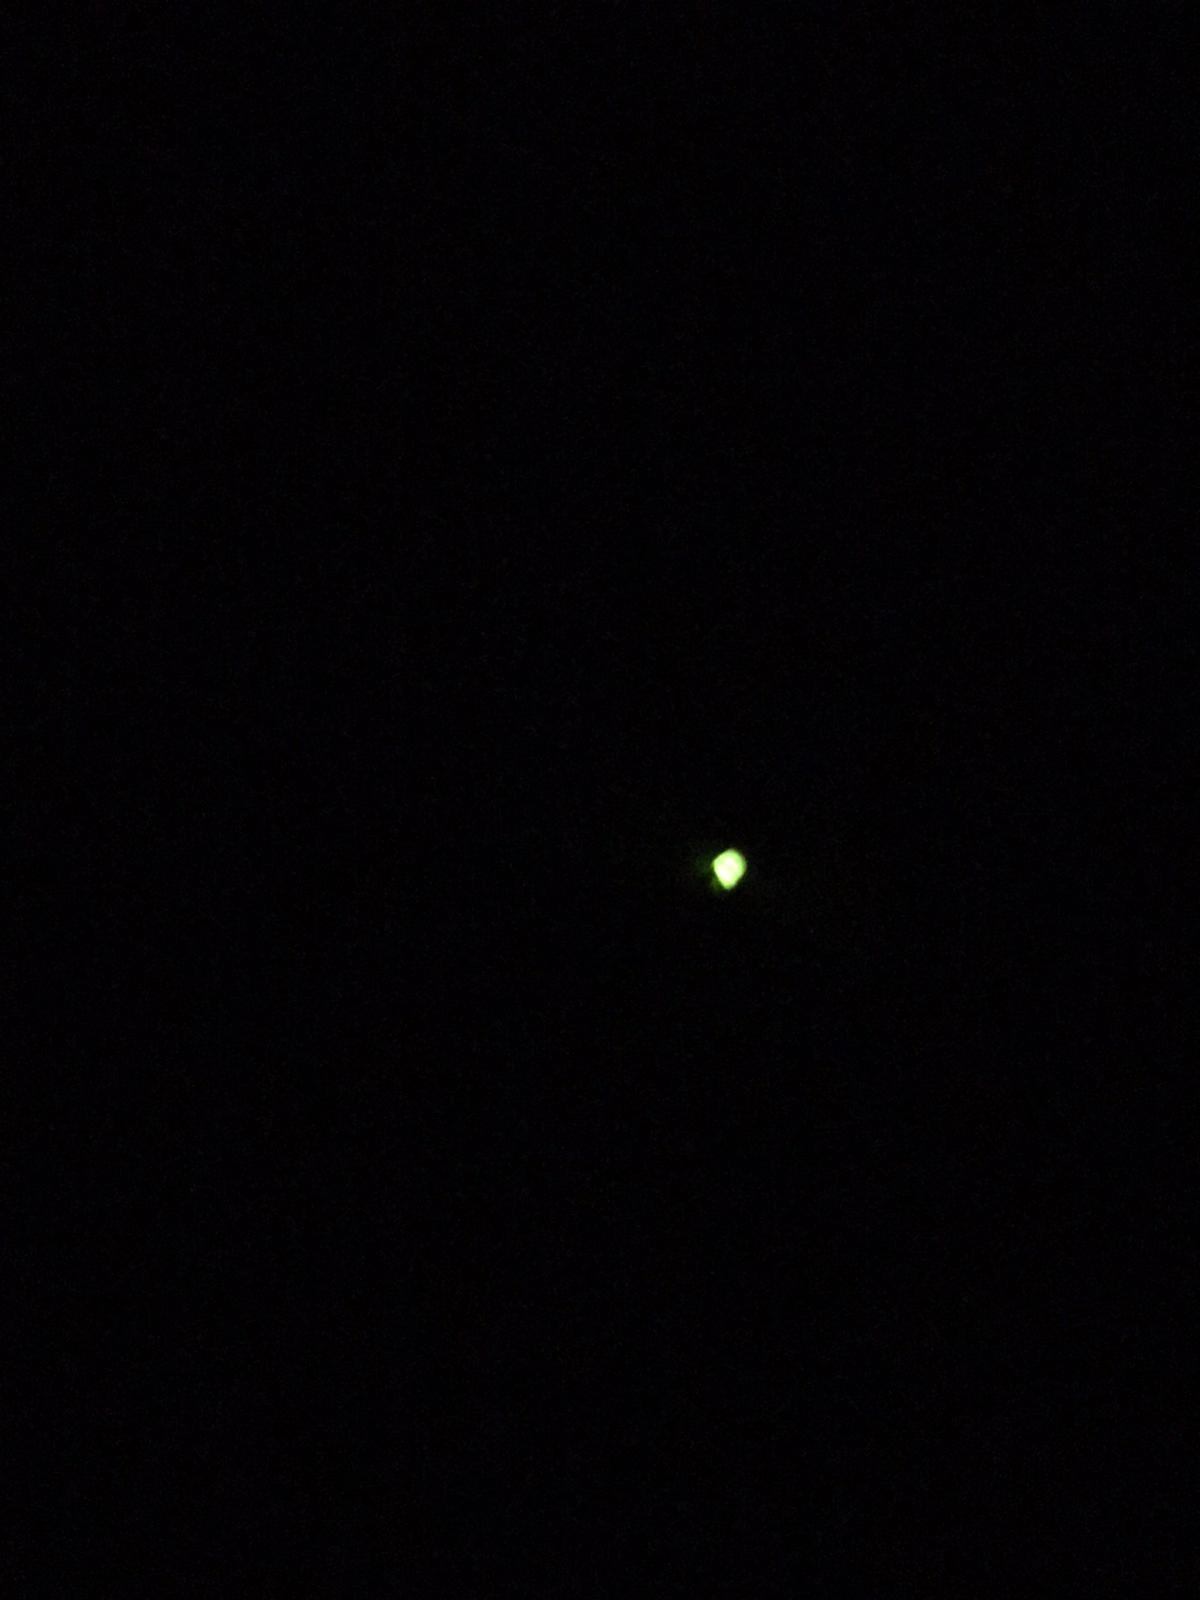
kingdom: Animalia
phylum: Arthropoda
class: Insecta
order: Coleoptera
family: Lampyridae
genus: Lampyris
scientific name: Lampyris noctiluca
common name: Glow-worm
